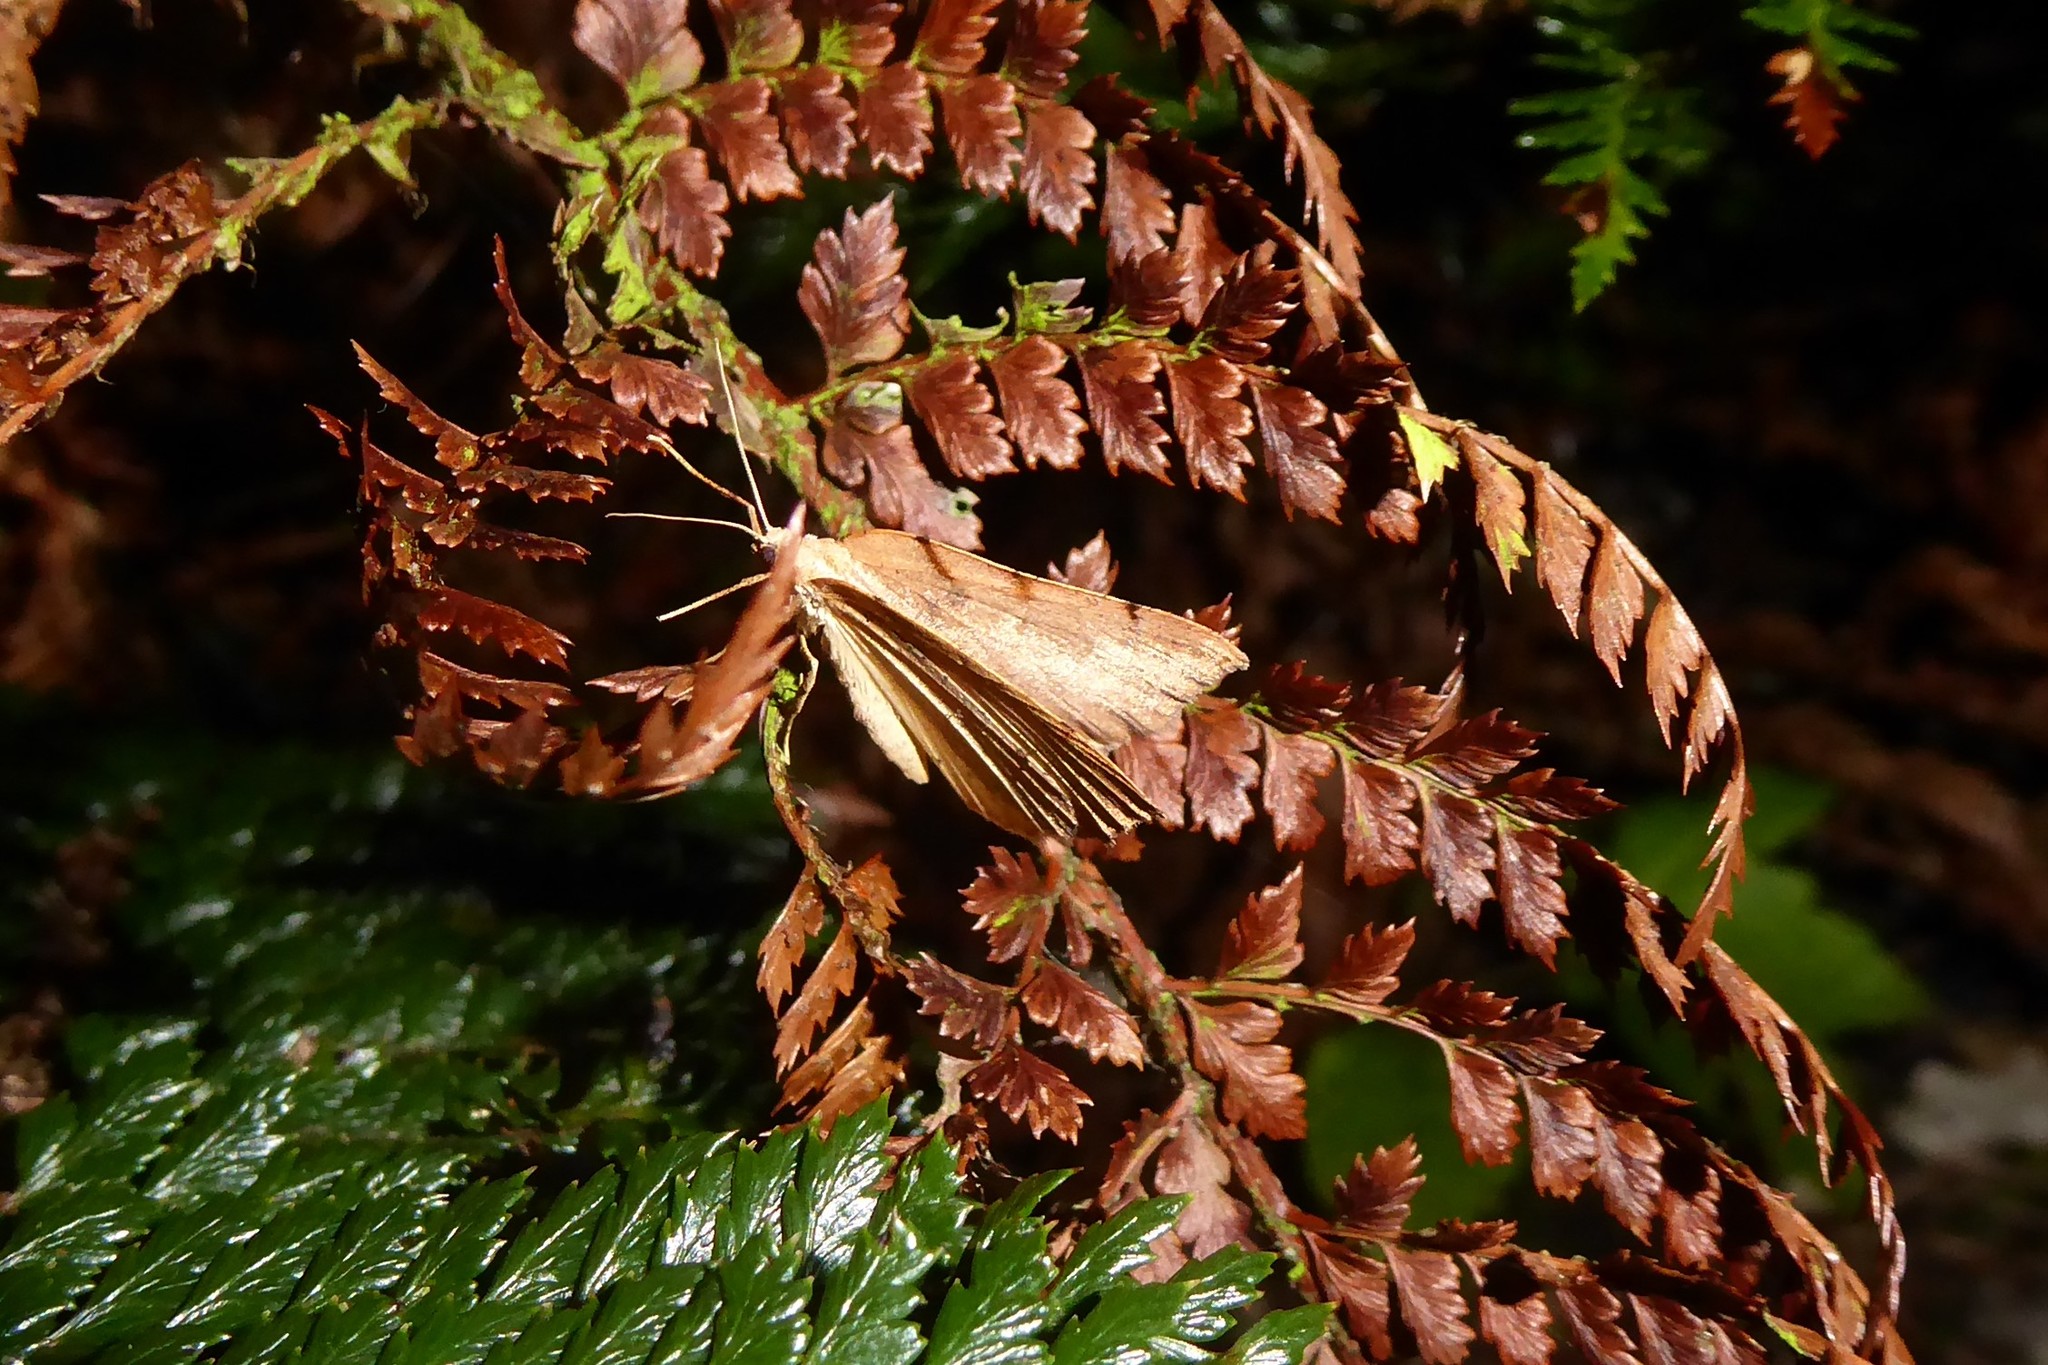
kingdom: Animalia
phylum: Arthropoda
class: Insecta
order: Lepidoptera
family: Geometridae
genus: Sestra
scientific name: Sestra humeraria
